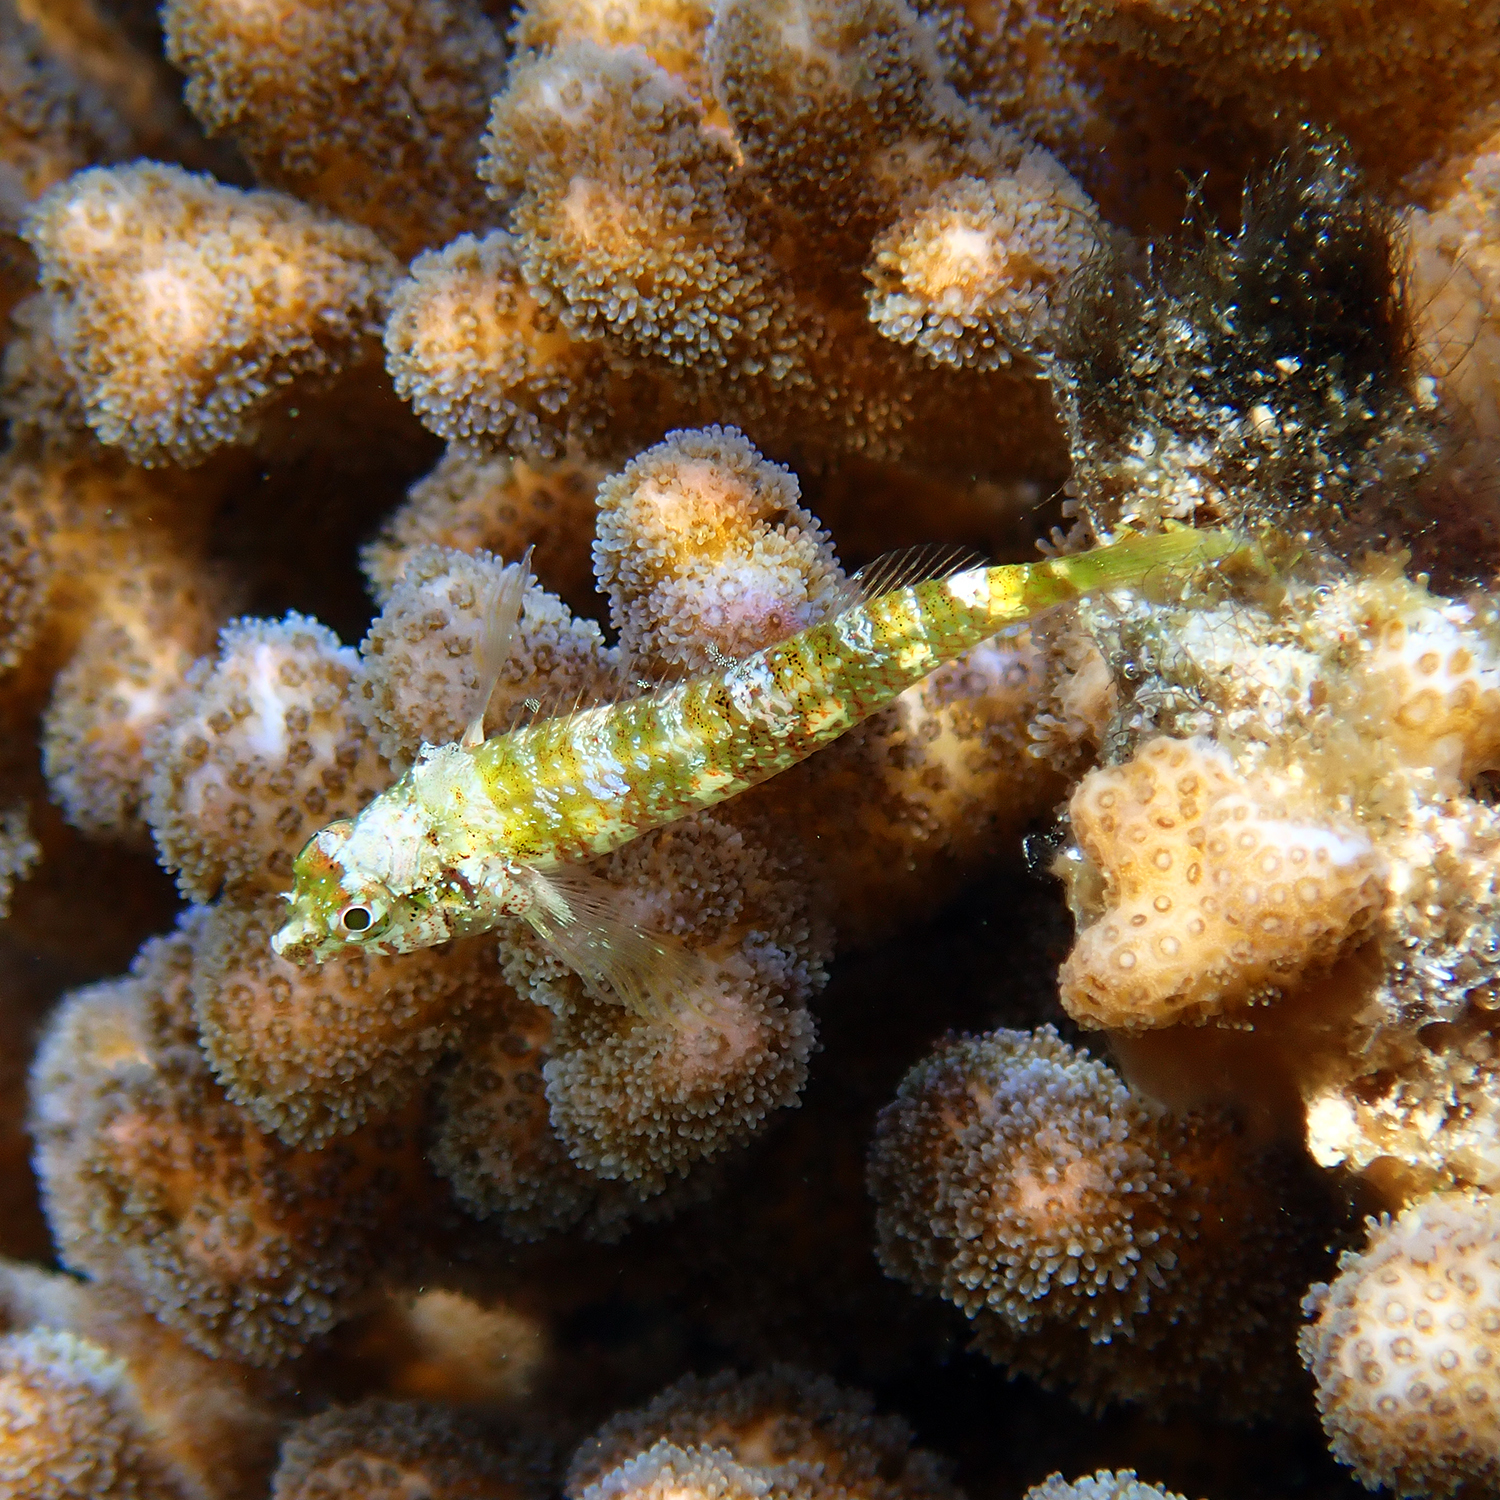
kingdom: Animalia
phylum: Chordata
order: Perciformes
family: Tripterygiidae
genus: Enneapterygius
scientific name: Enneapterygius rufopileus
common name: Lord howe black-head triplefin
